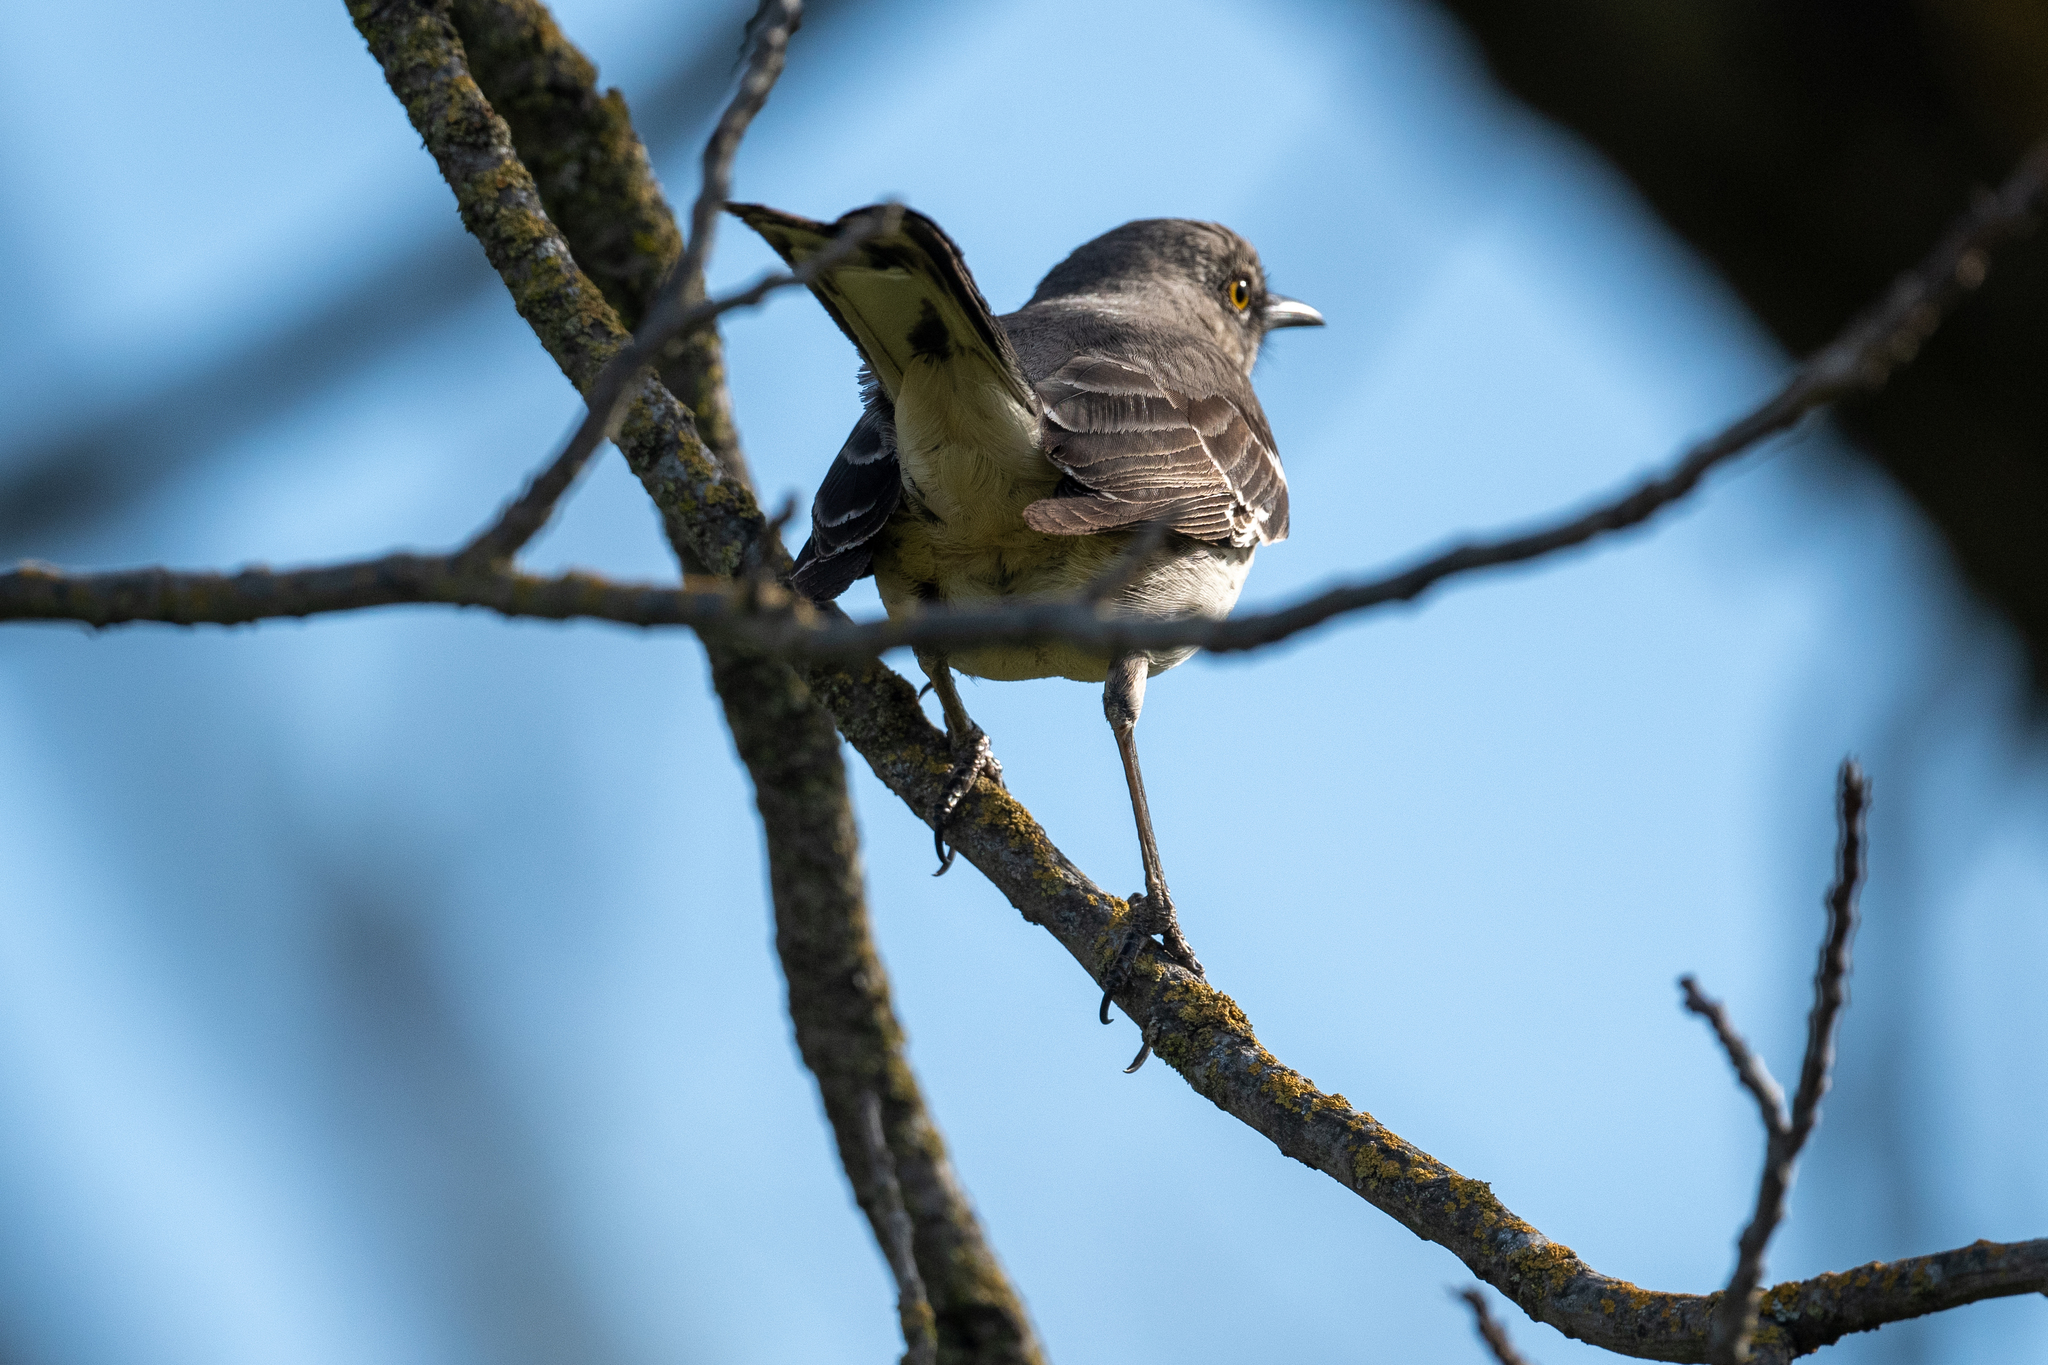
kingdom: Animalia
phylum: Chordata
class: Aves
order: Passeriformes
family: Mimidae
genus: Mimus
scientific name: Mimus polyglottos
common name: Northern mockingbird
